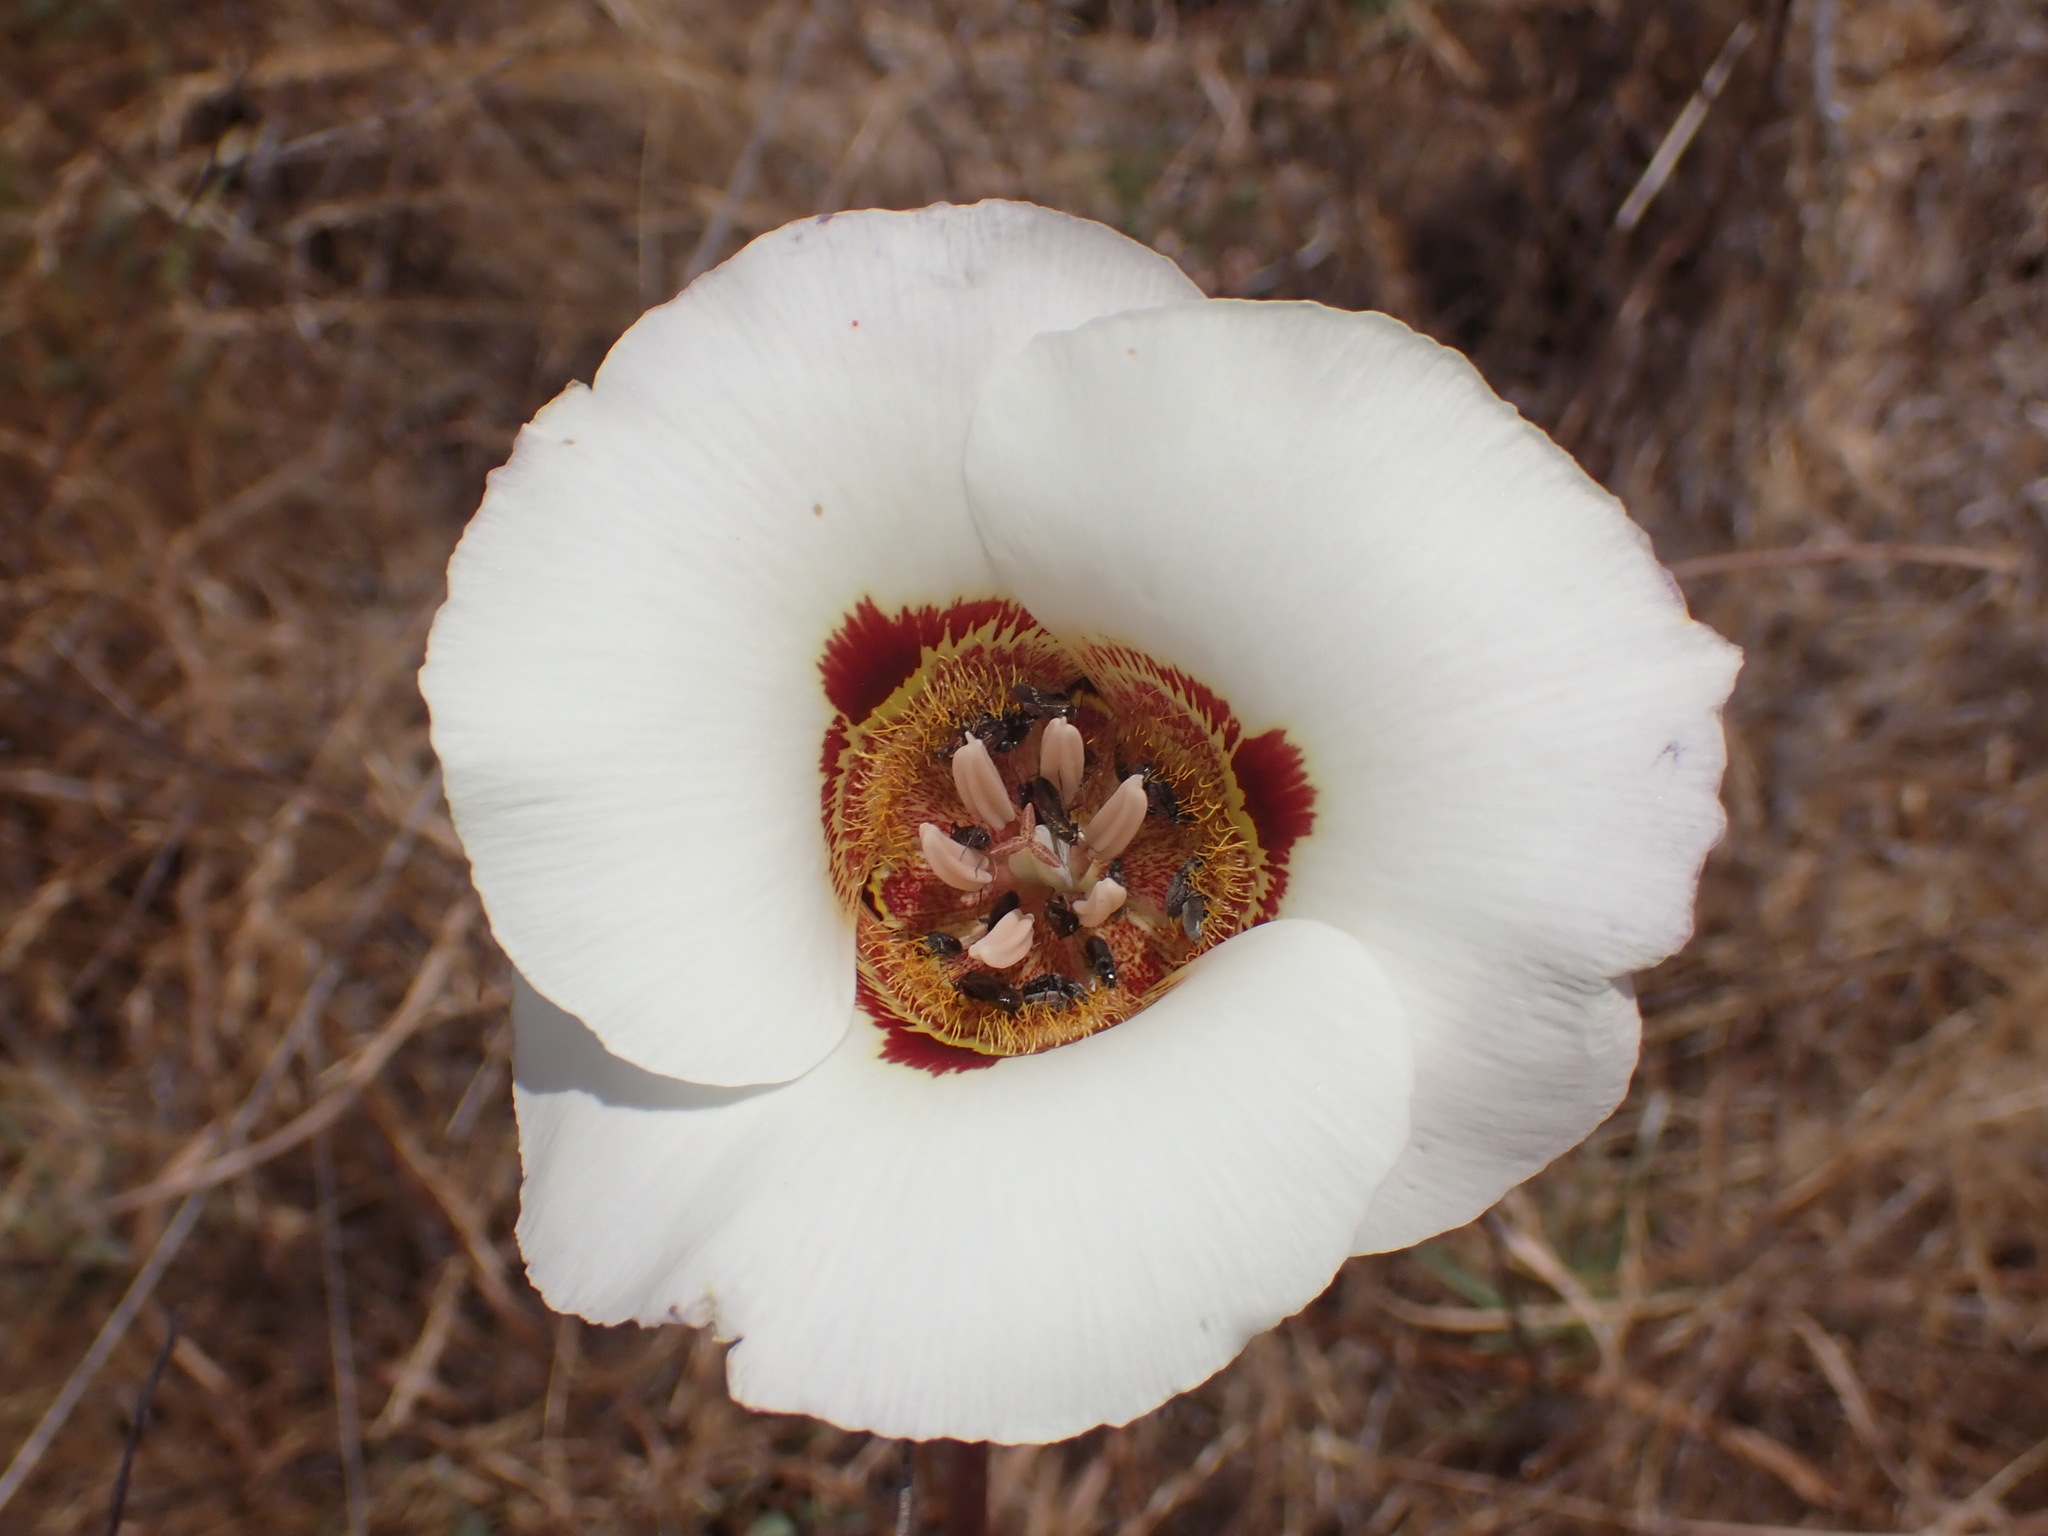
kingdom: Plantae
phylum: Tracheophyta
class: Liliopsida
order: Liliales
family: Liliaceae
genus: Calochortus
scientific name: Calochortus vestae
